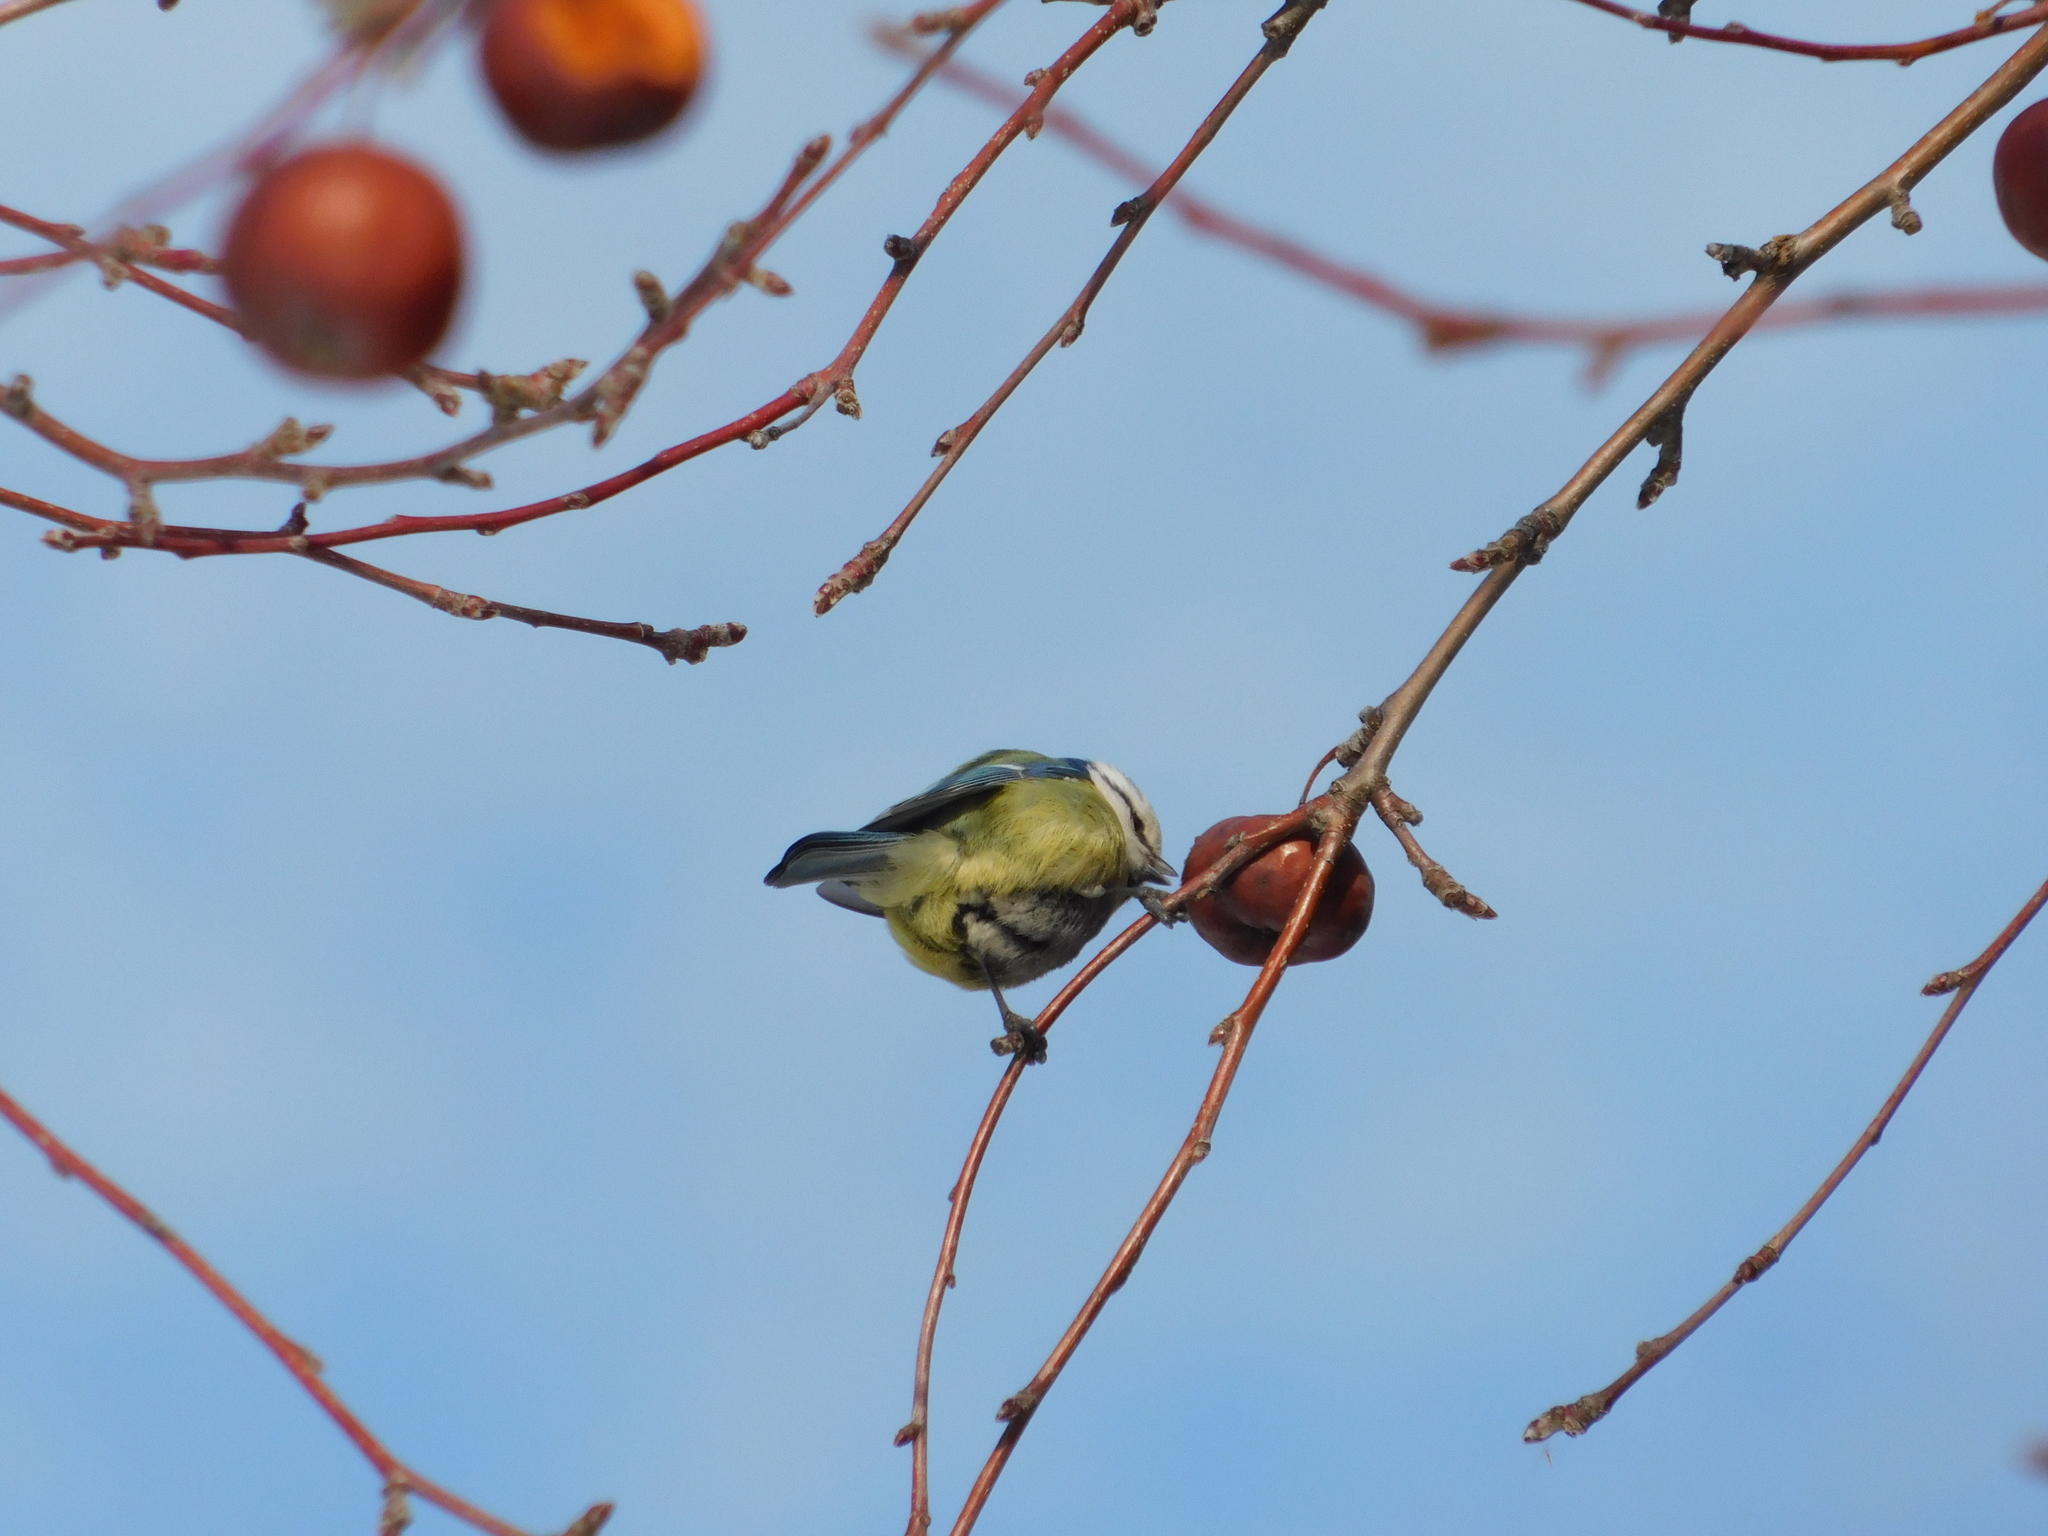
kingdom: Animalia
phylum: Chordata
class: Aves
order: Passeriformes
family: Paridae
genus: Cyanistes
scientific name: Cyanistes caeruleus
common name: Eurasian blue tit
